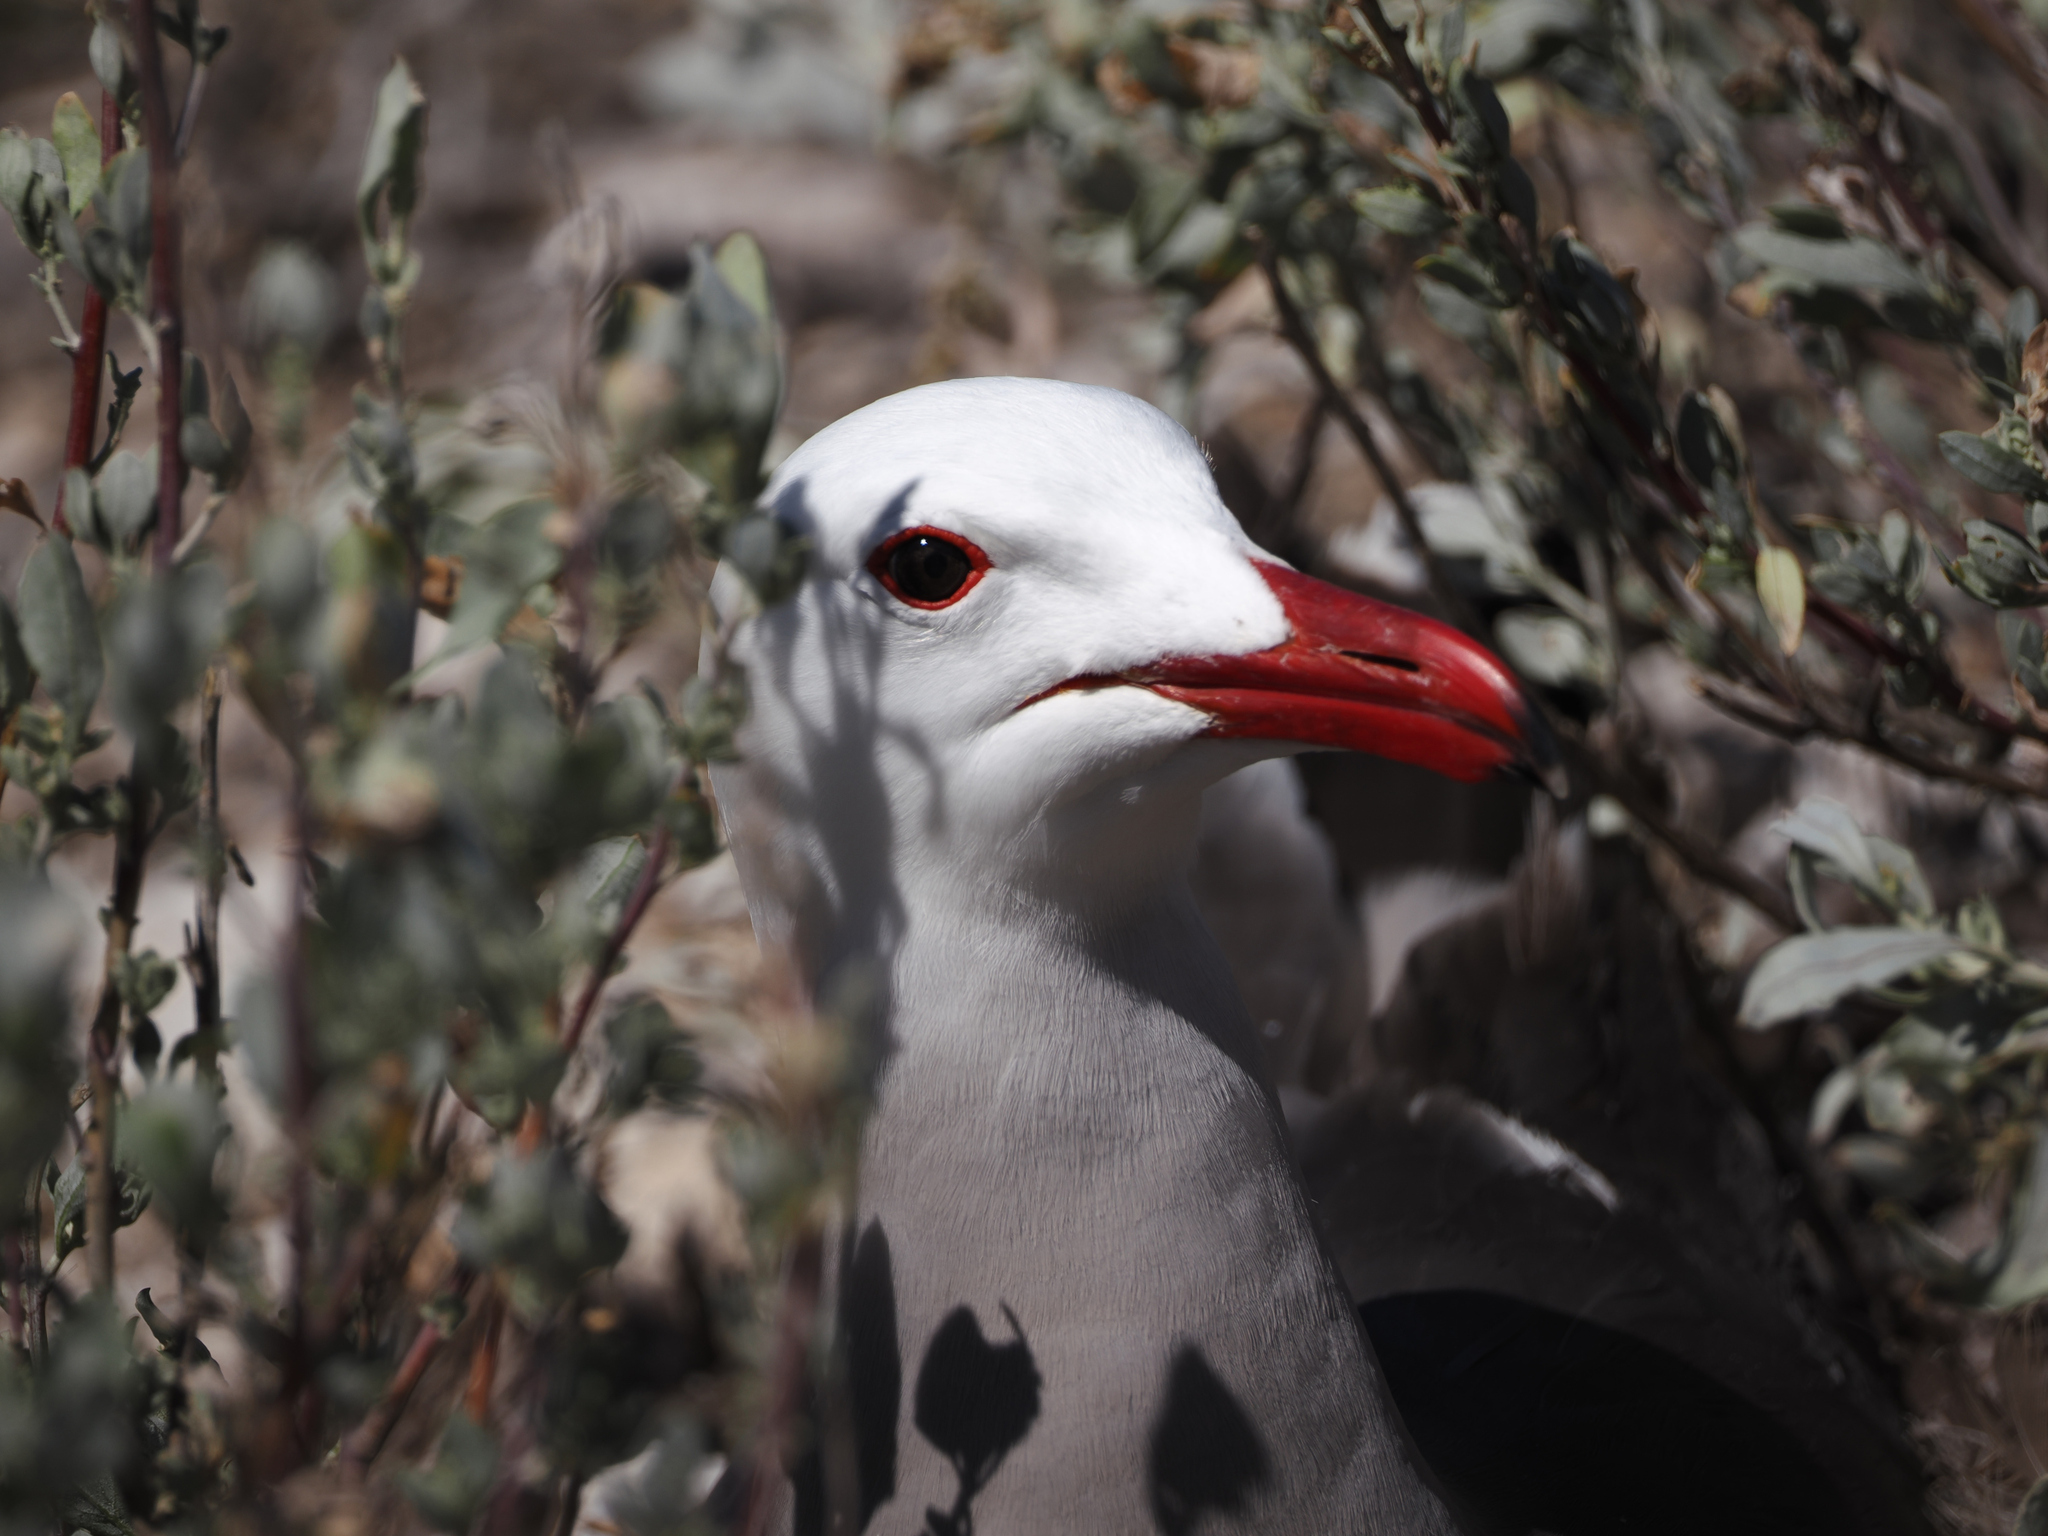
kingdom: Animalia
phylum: Chordata
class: Aves
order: Charadriiformes
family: Laridae
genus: Larus
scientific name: Larus heermanni
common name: Heermann's gull
